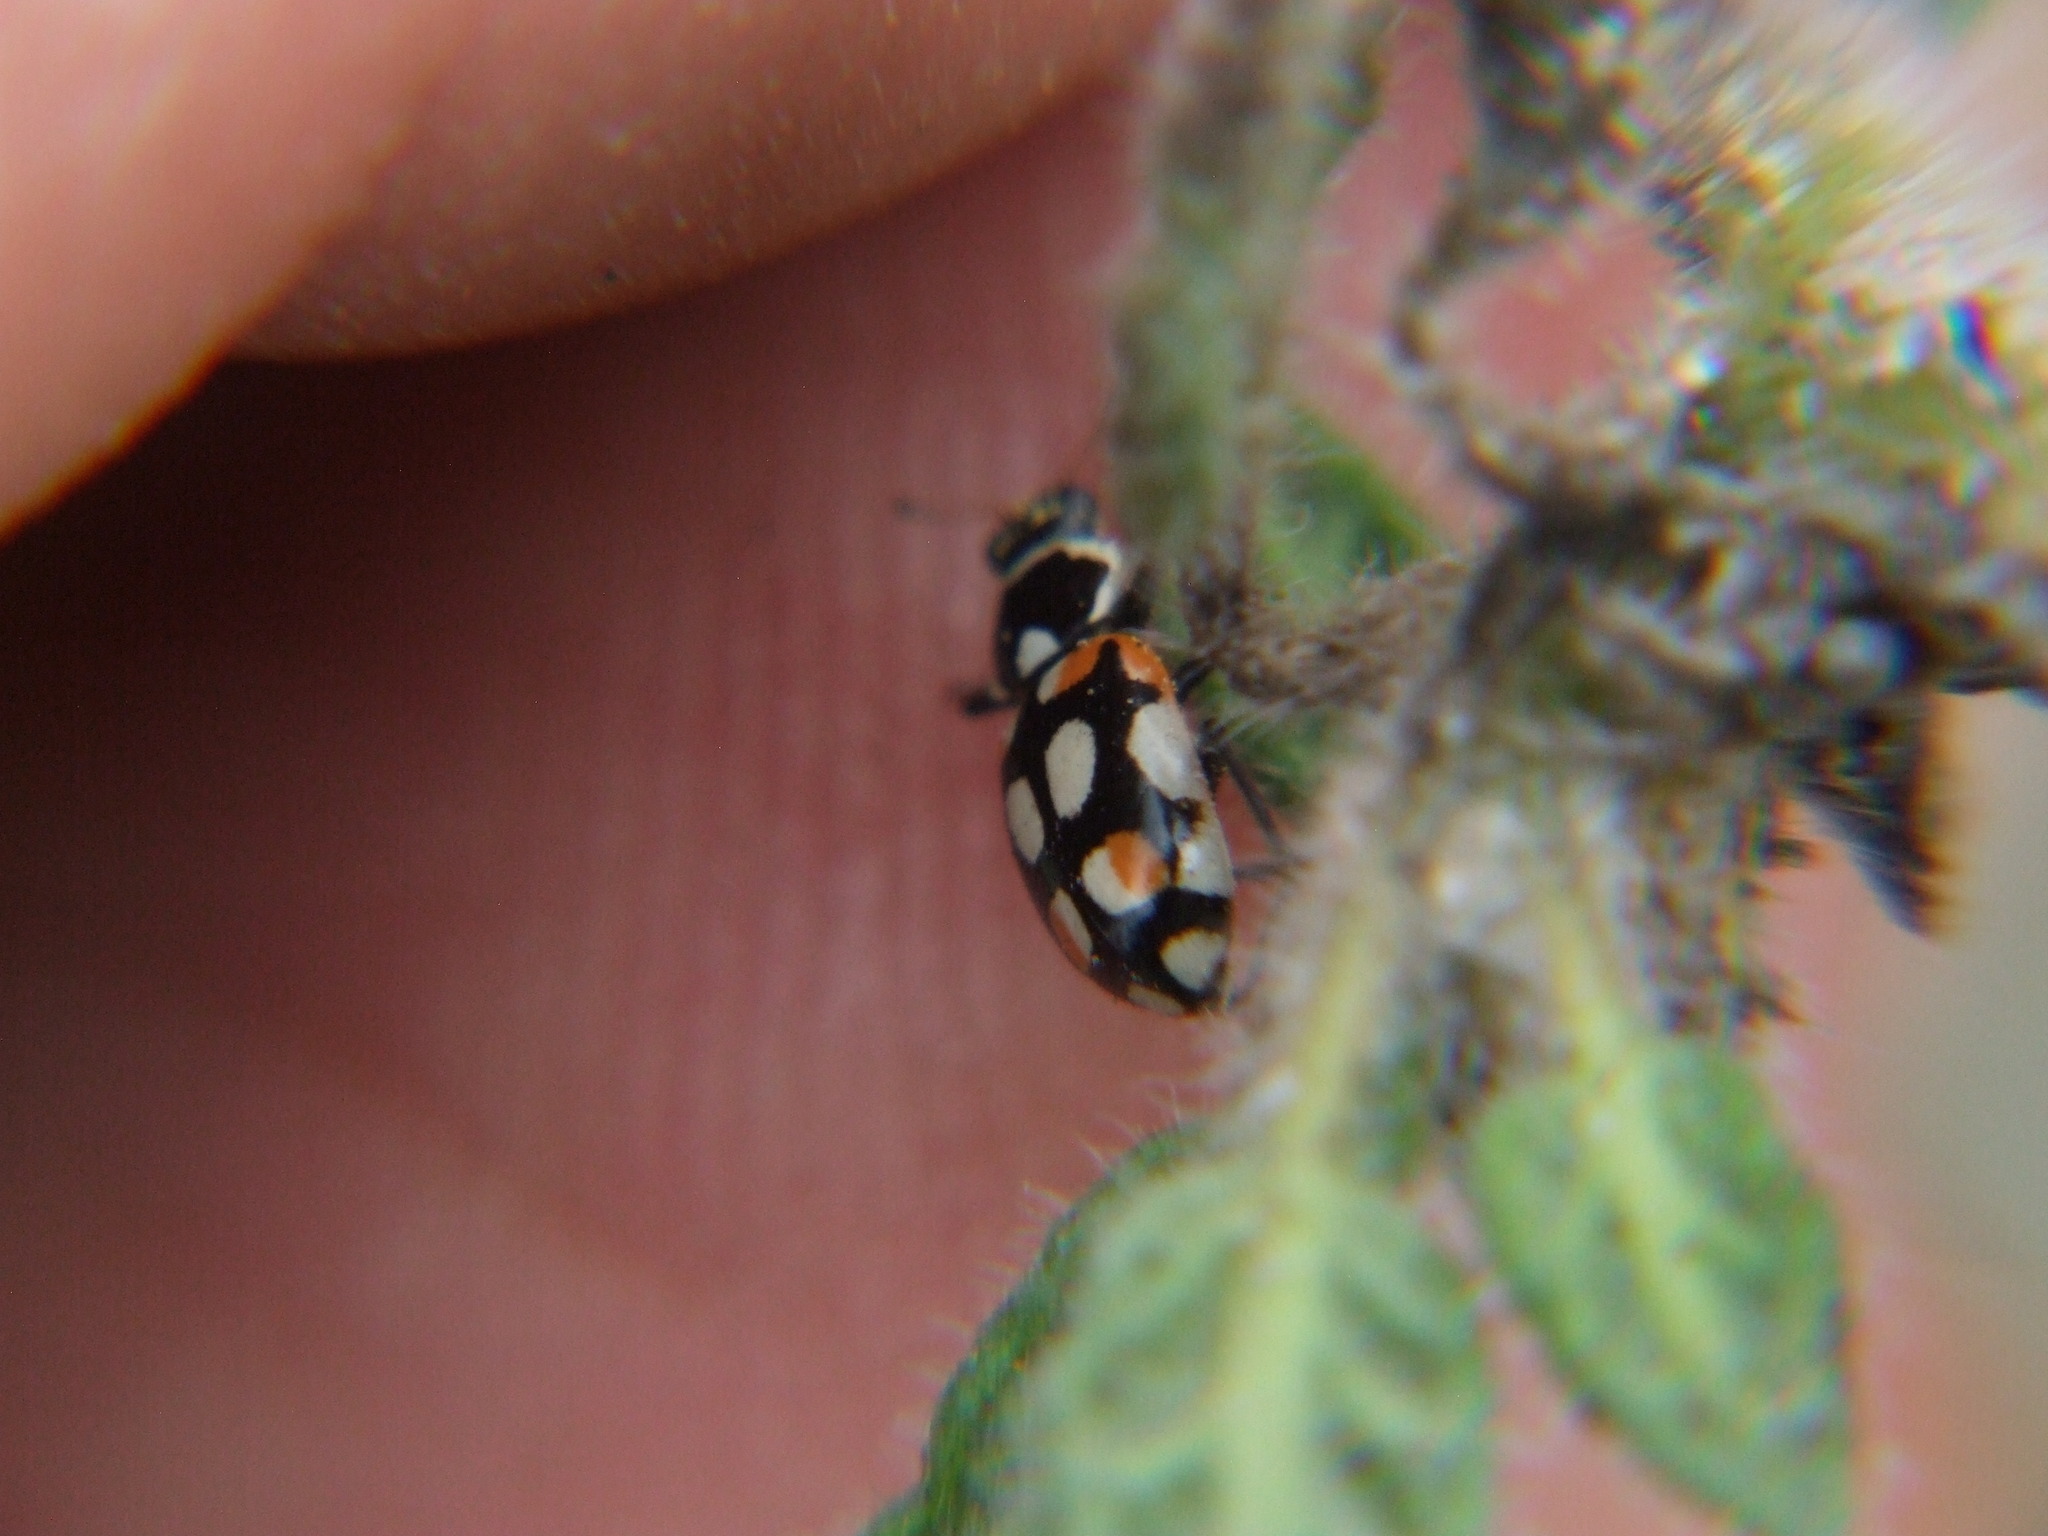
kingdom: Animalia
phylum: Arthropoda
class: Insecta
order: Coleoptera
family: Coccinellidae
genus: Eriopis
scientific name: Eriopis
